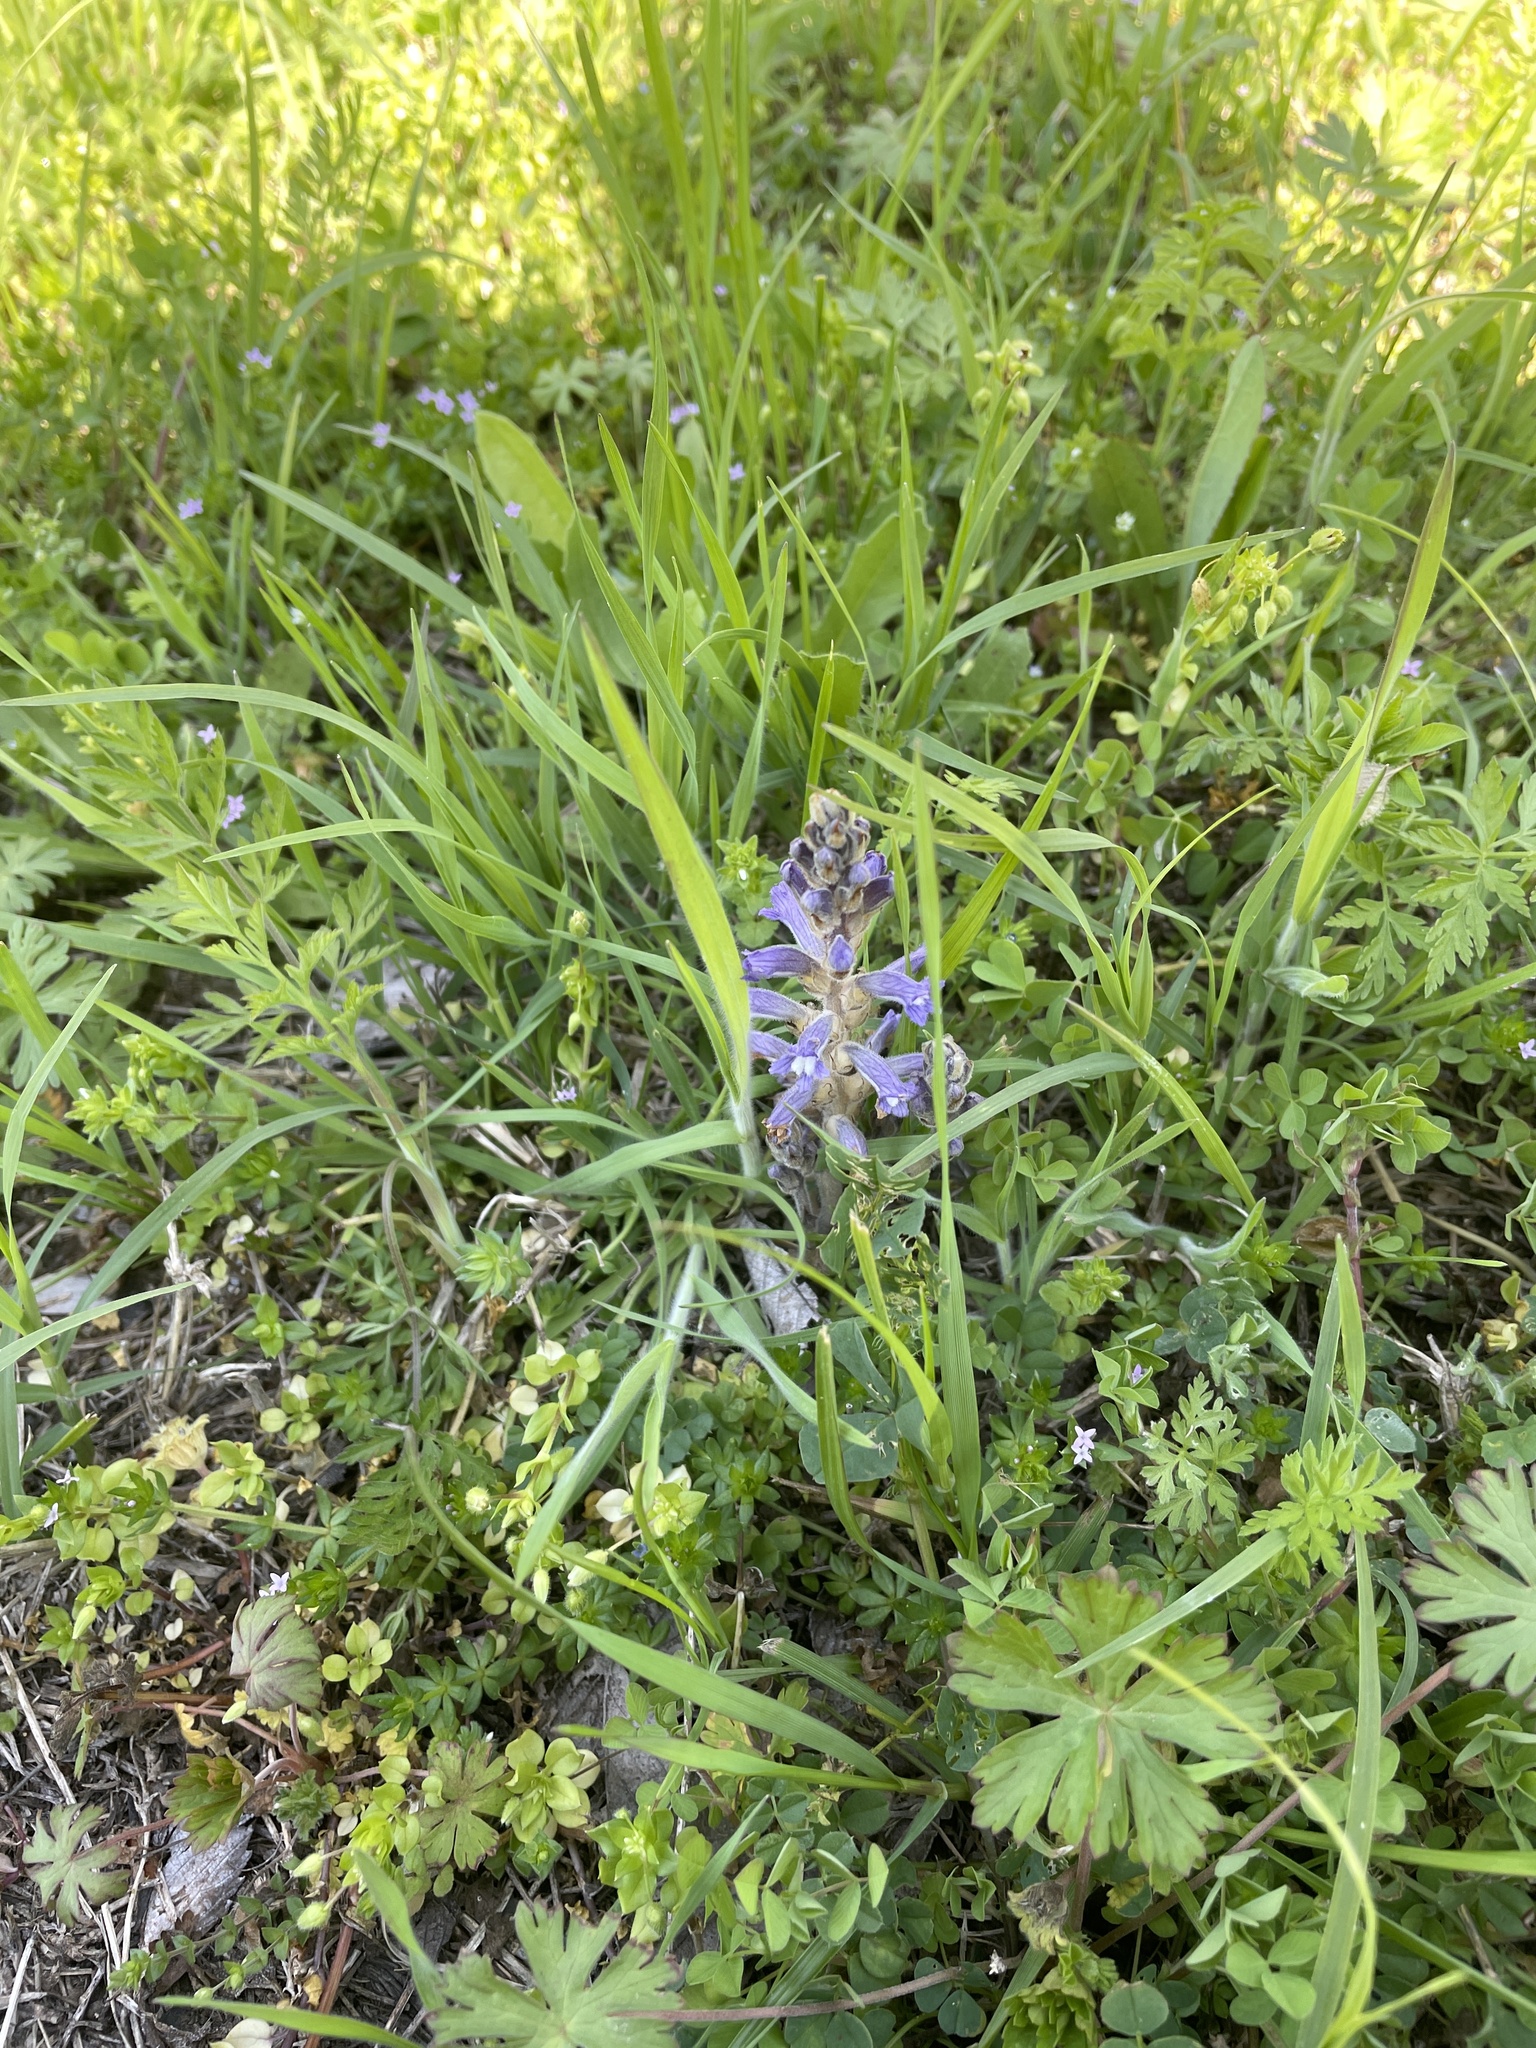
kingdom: Plantae
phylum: Tracheophyta
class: Magnoliopsida
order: Lamiales
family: Orobanchaceae
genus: Phelipanche
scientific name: Phelipanche mutelii
